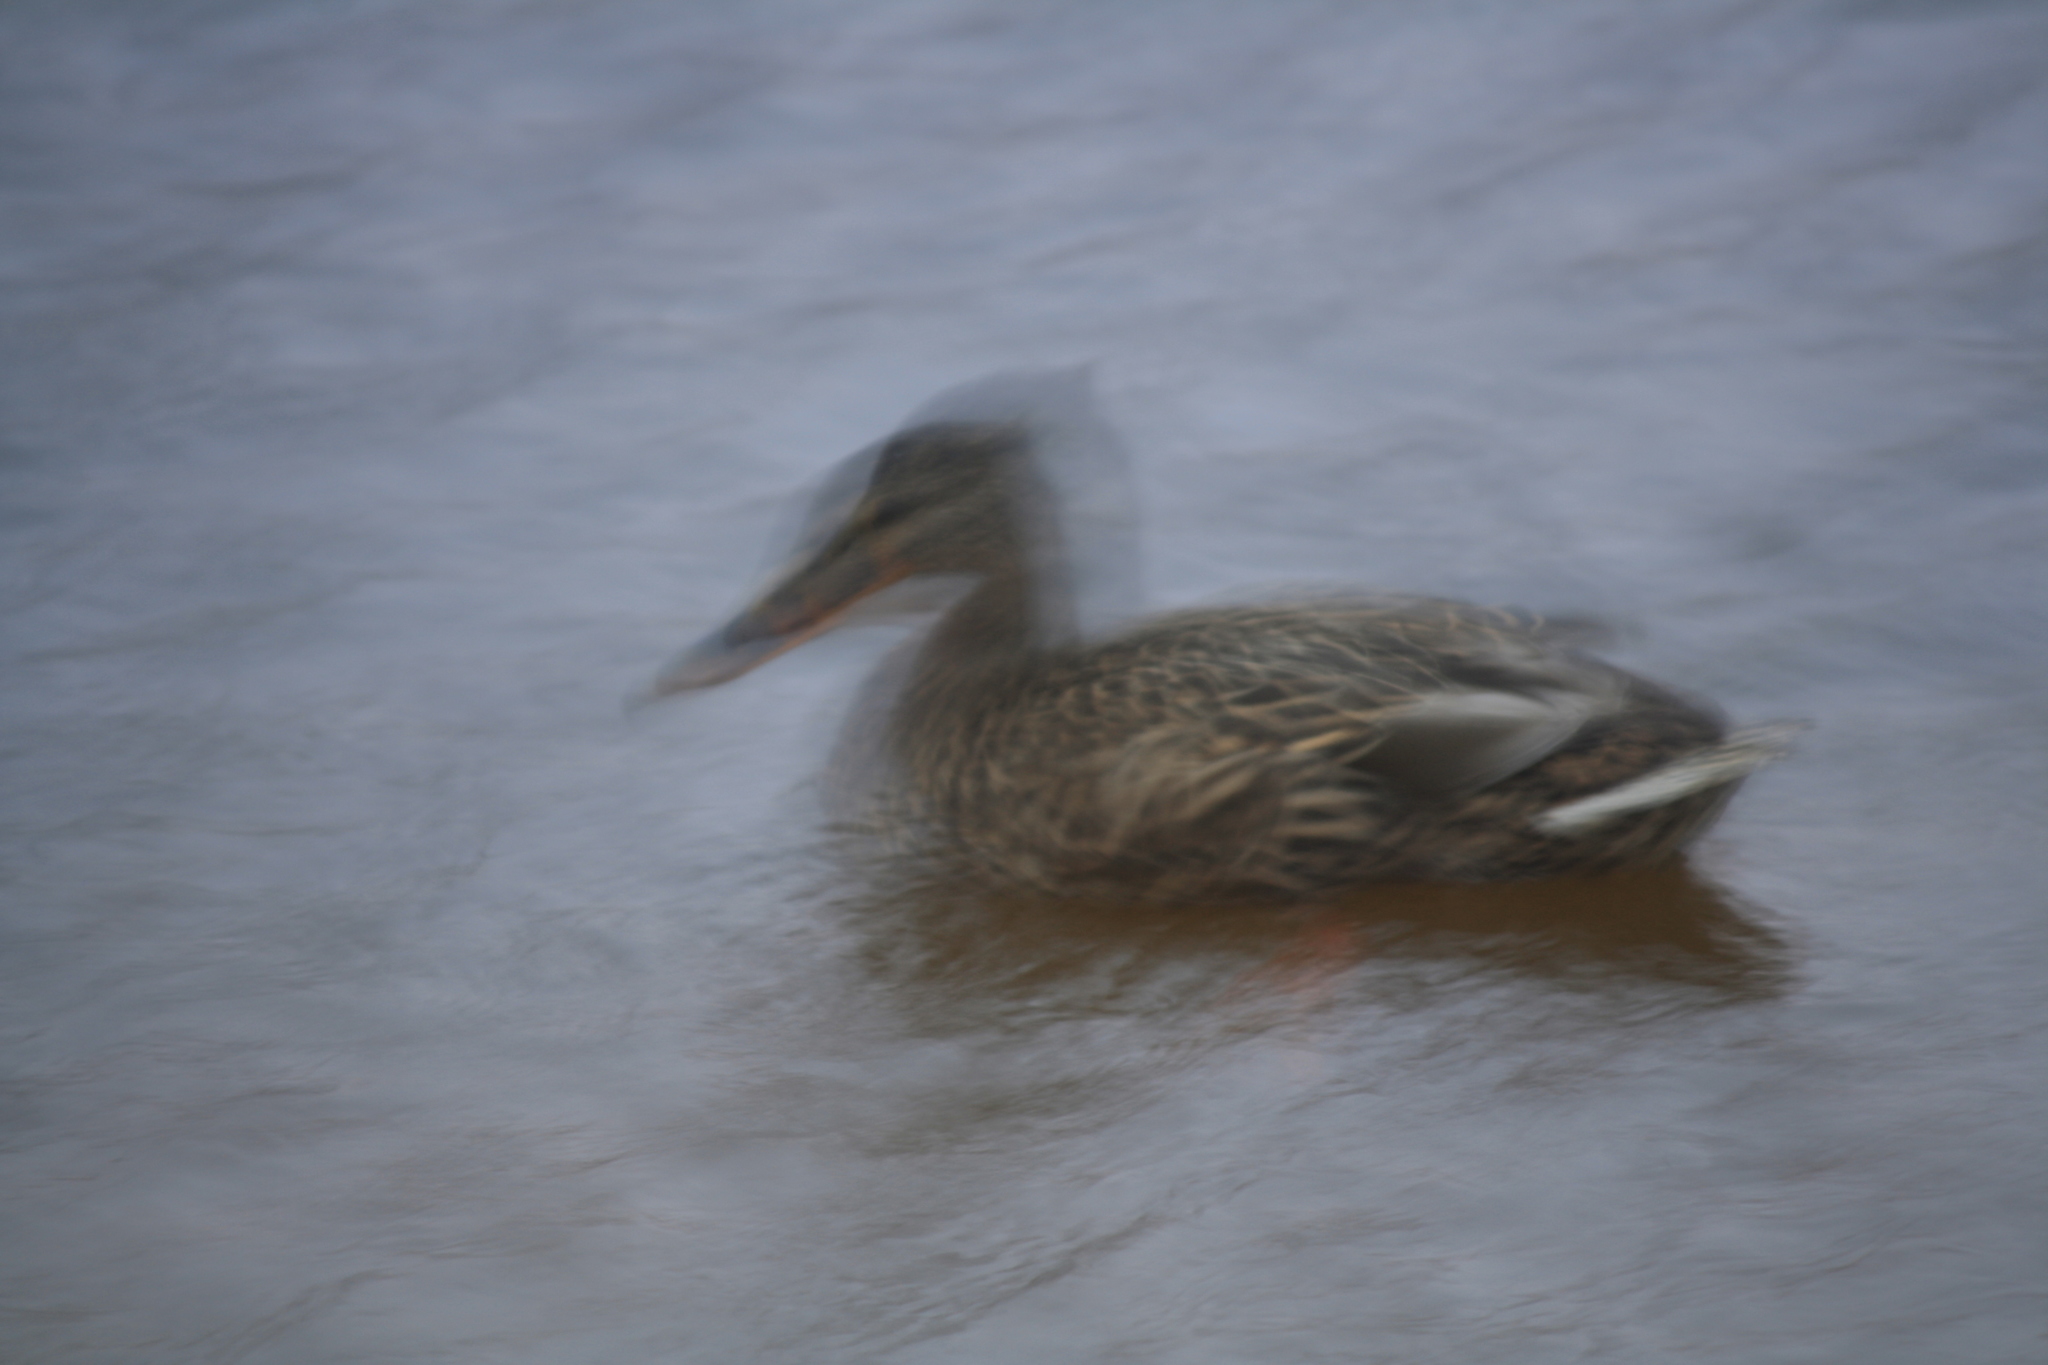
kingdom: Animalia
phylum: Chordata
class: Aves
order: Anseriformes
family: Anatidae
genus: Anas
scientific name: Anas platyrhynchos
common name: Mallard
